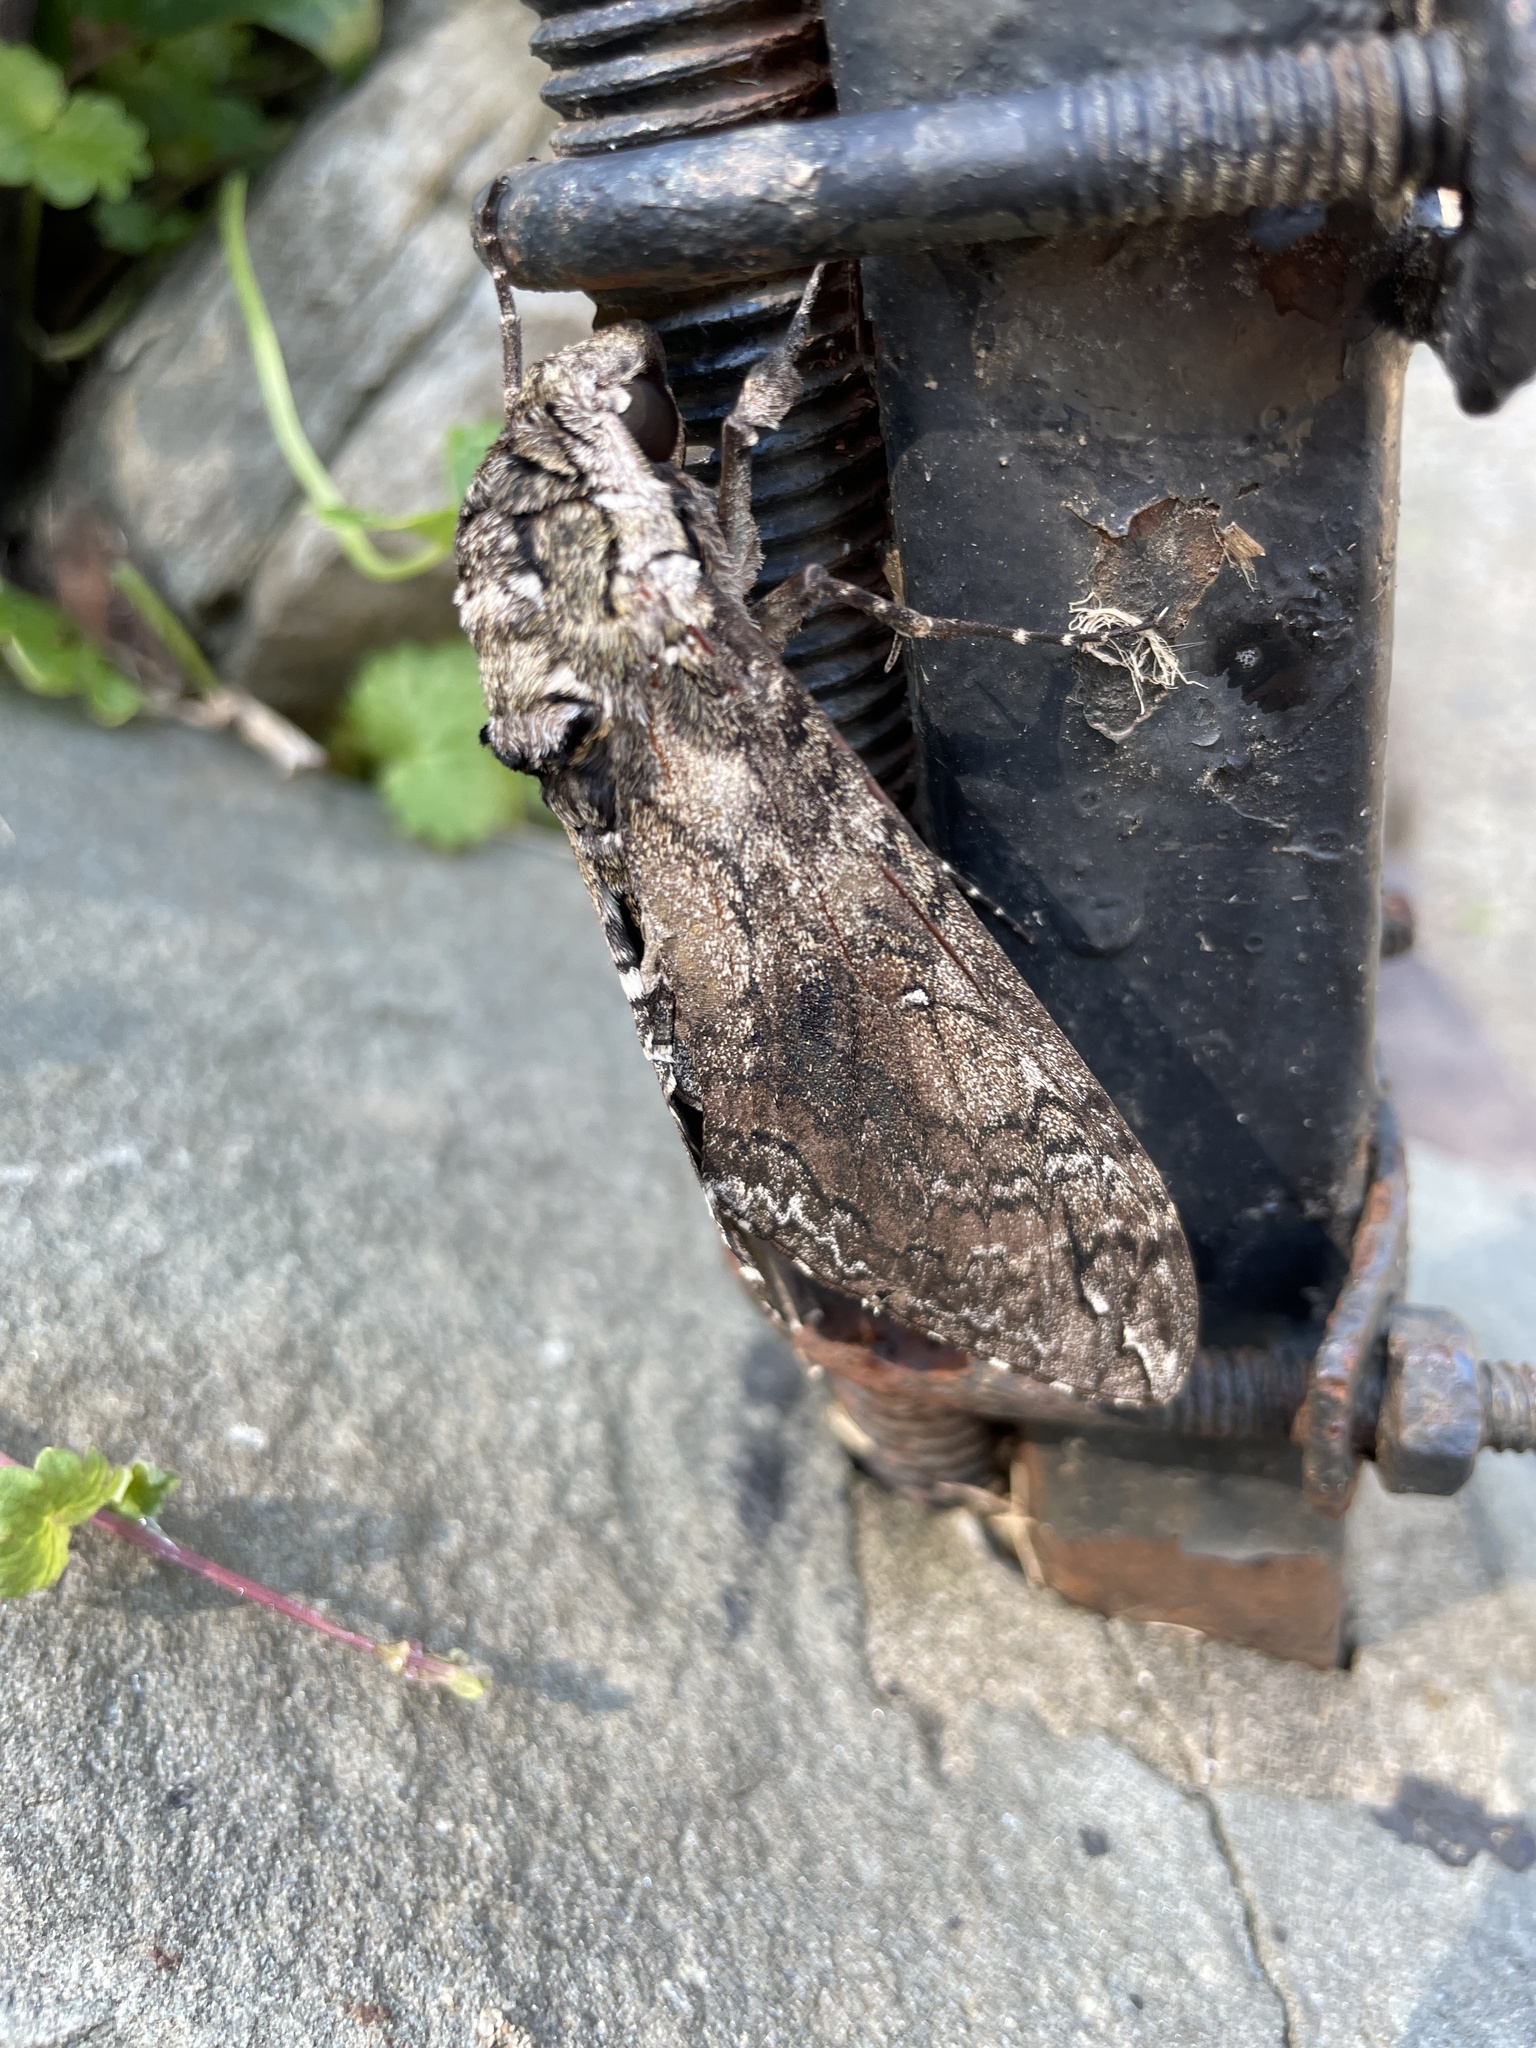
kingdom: Animalia
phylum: Arthropoda
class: Insecta
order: Lepidoptera
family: Sphingidae
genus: Manduca
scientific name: Manduca sexta
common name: Carolina sphinx
